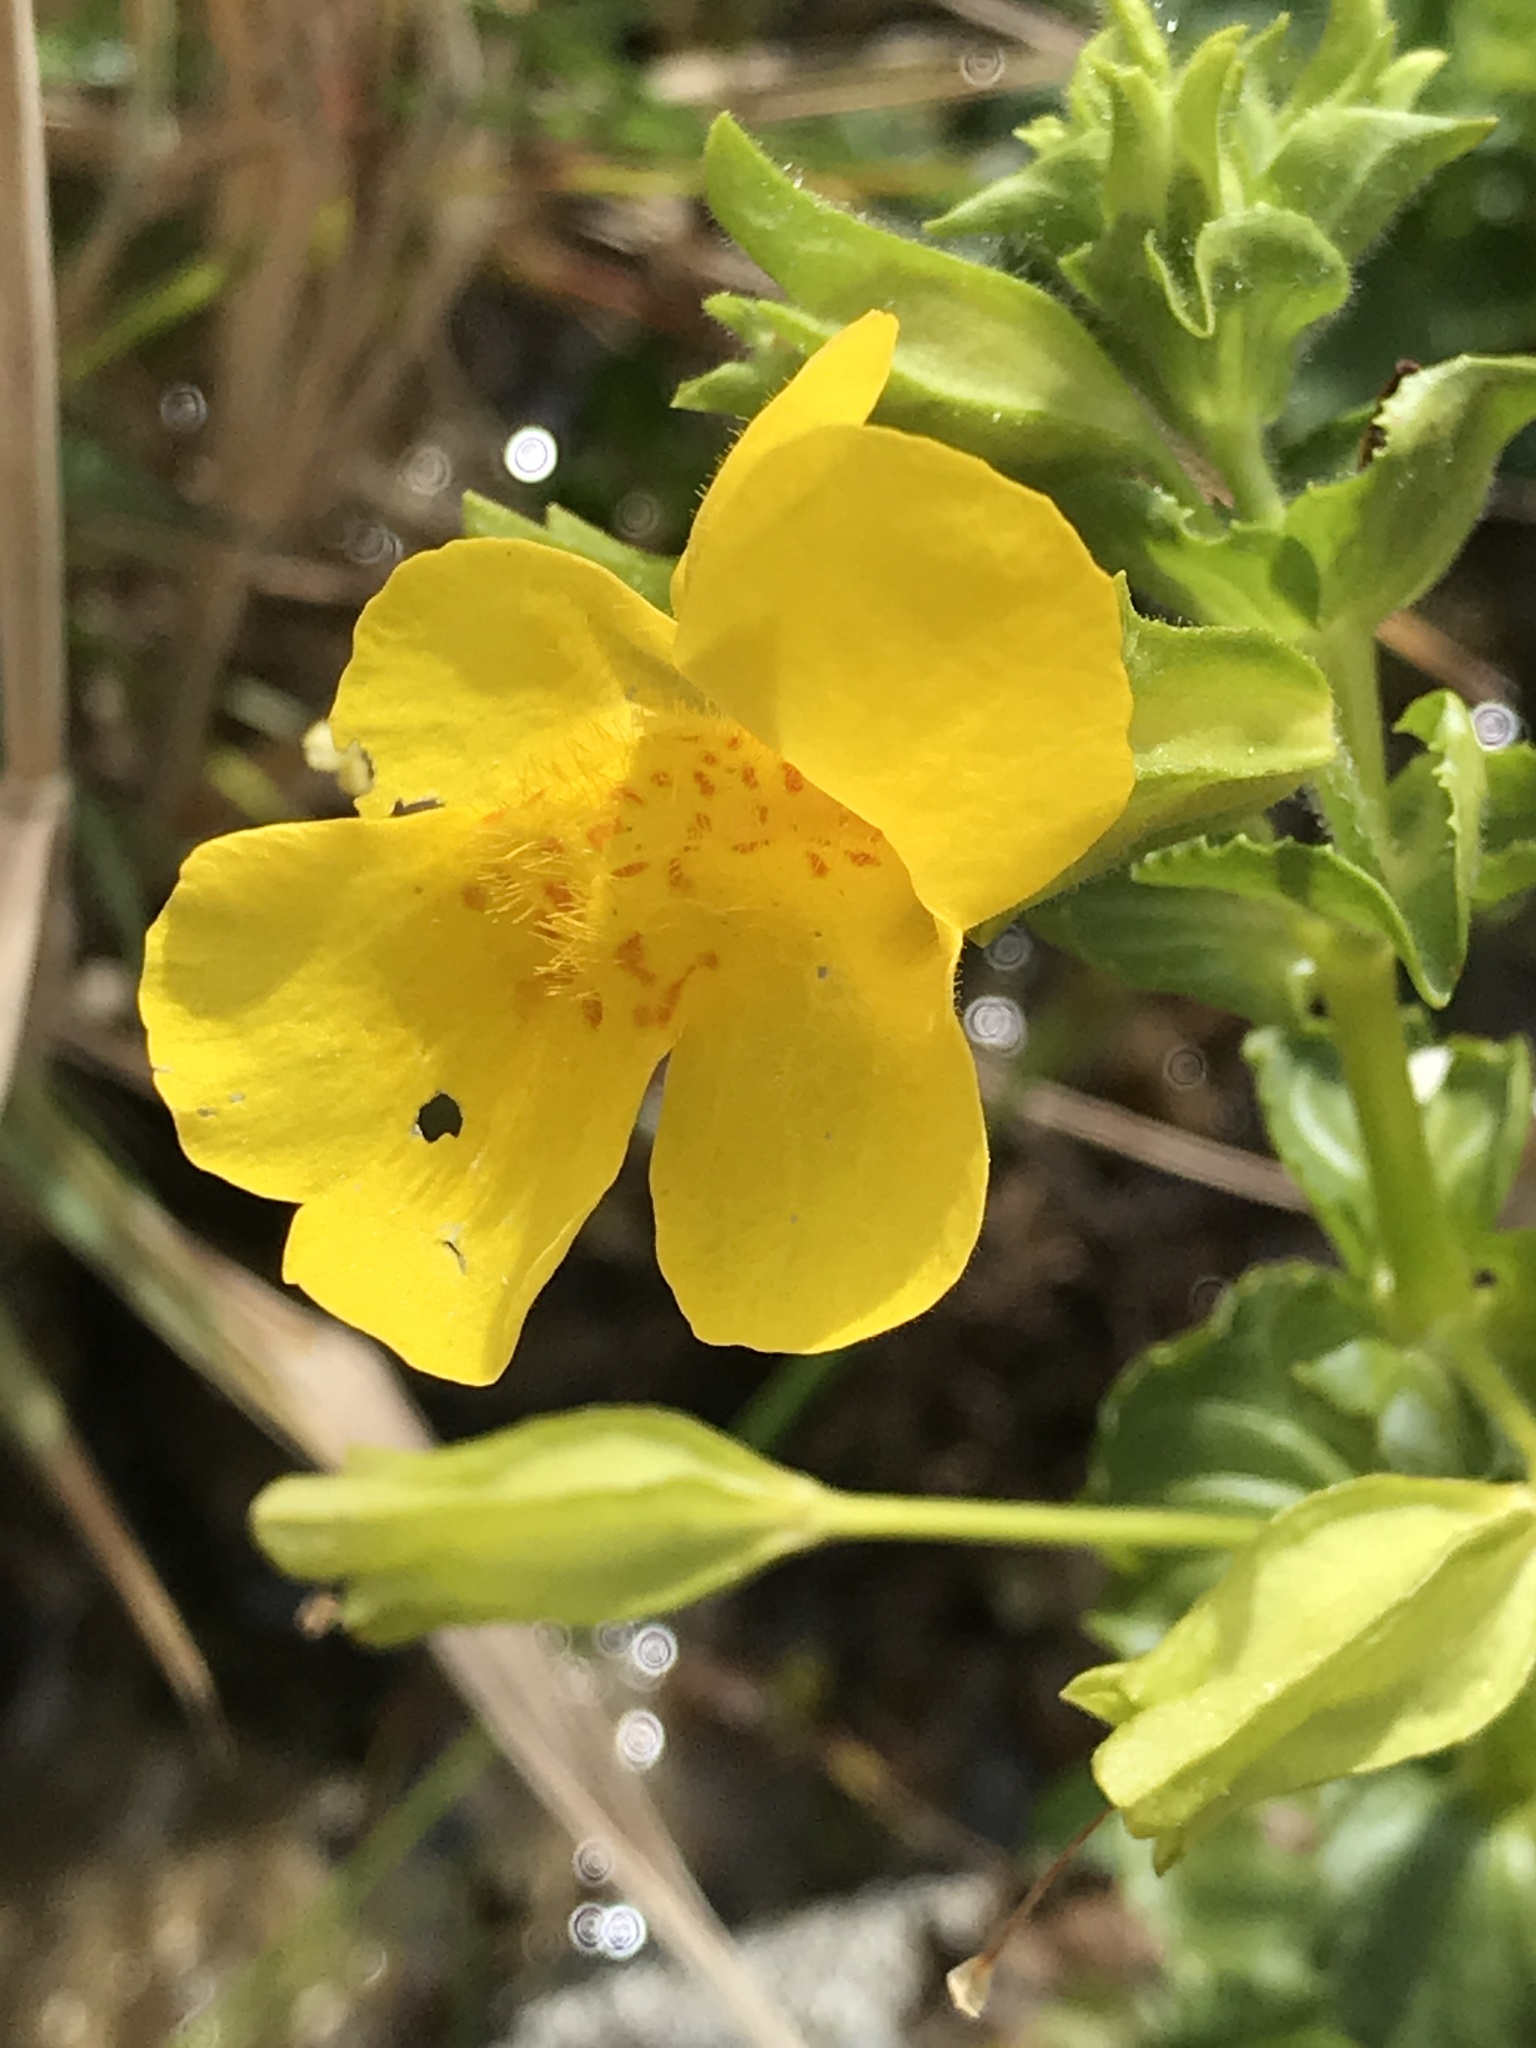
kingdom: Plantae
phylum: Tracheophyta
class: Magnoliopsida
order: Lamiales
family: Phrymaceae
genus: Erythranthe
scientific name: Erythranthe guttata
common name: Monkeyflower
